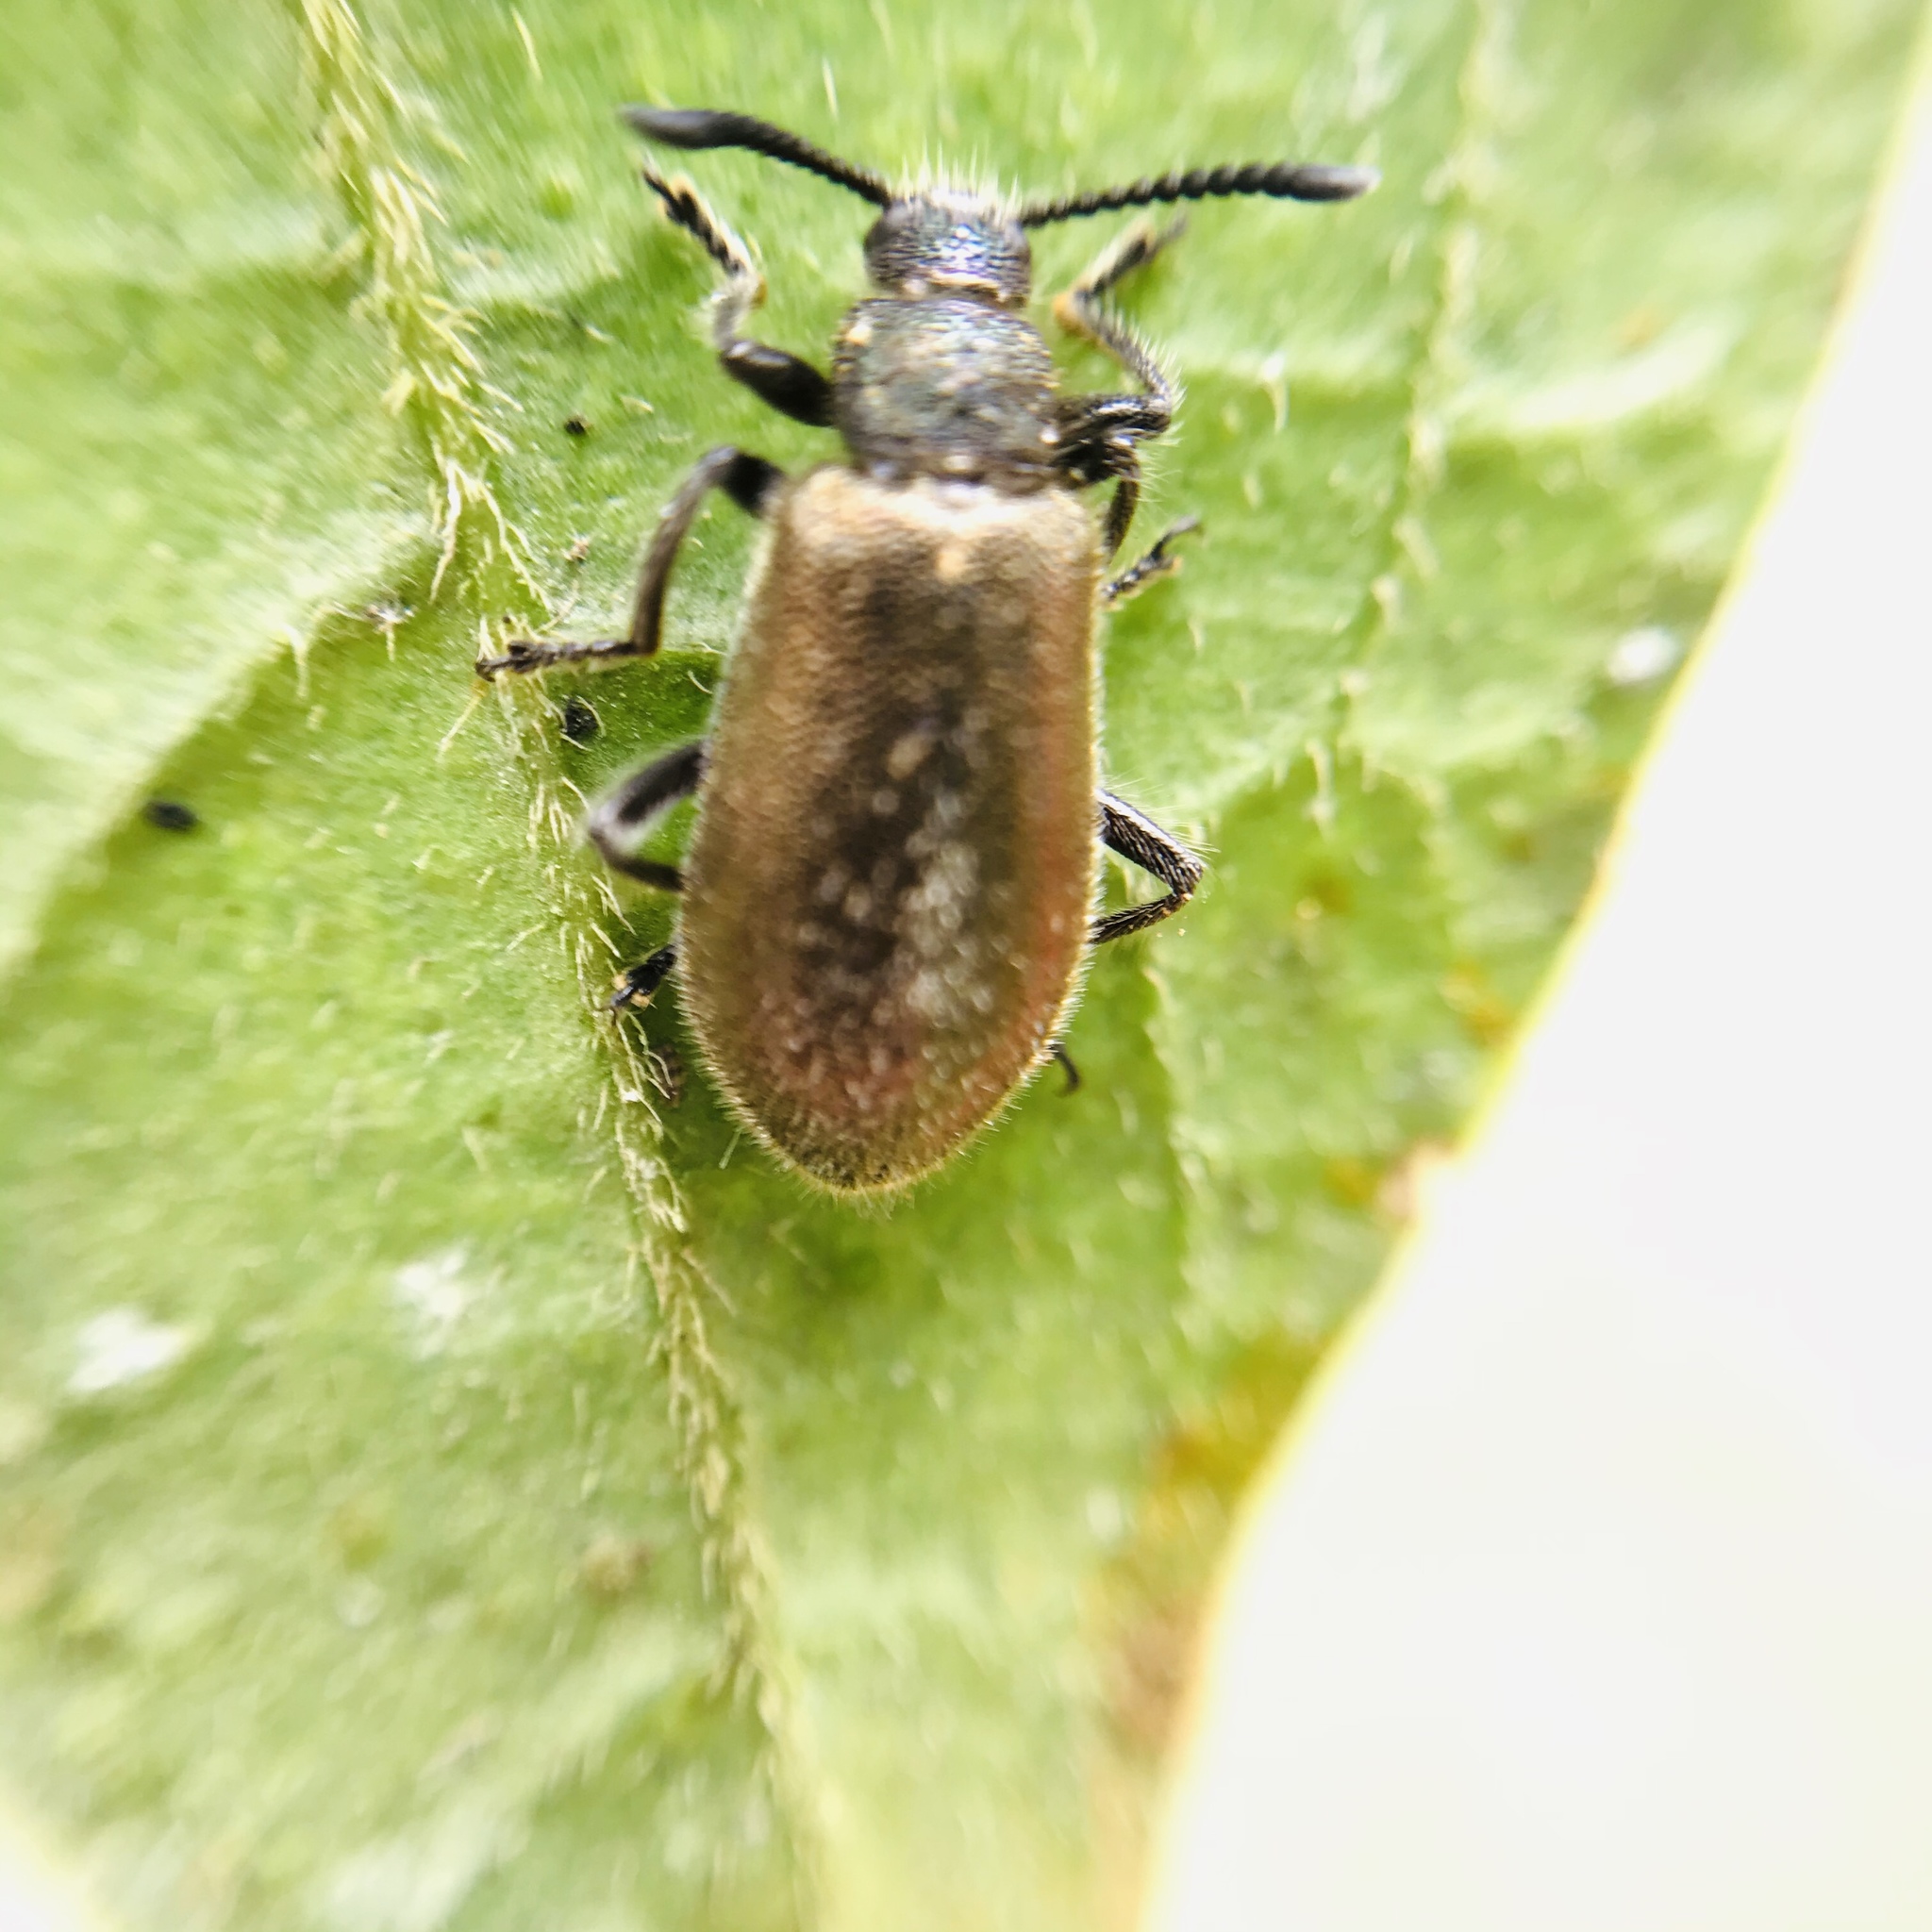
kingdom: Animalia
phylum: Arthropoda
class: Insecta
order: Coleoptera
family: Tenebrionidae
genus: Lagria
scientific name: Lagria villosa
